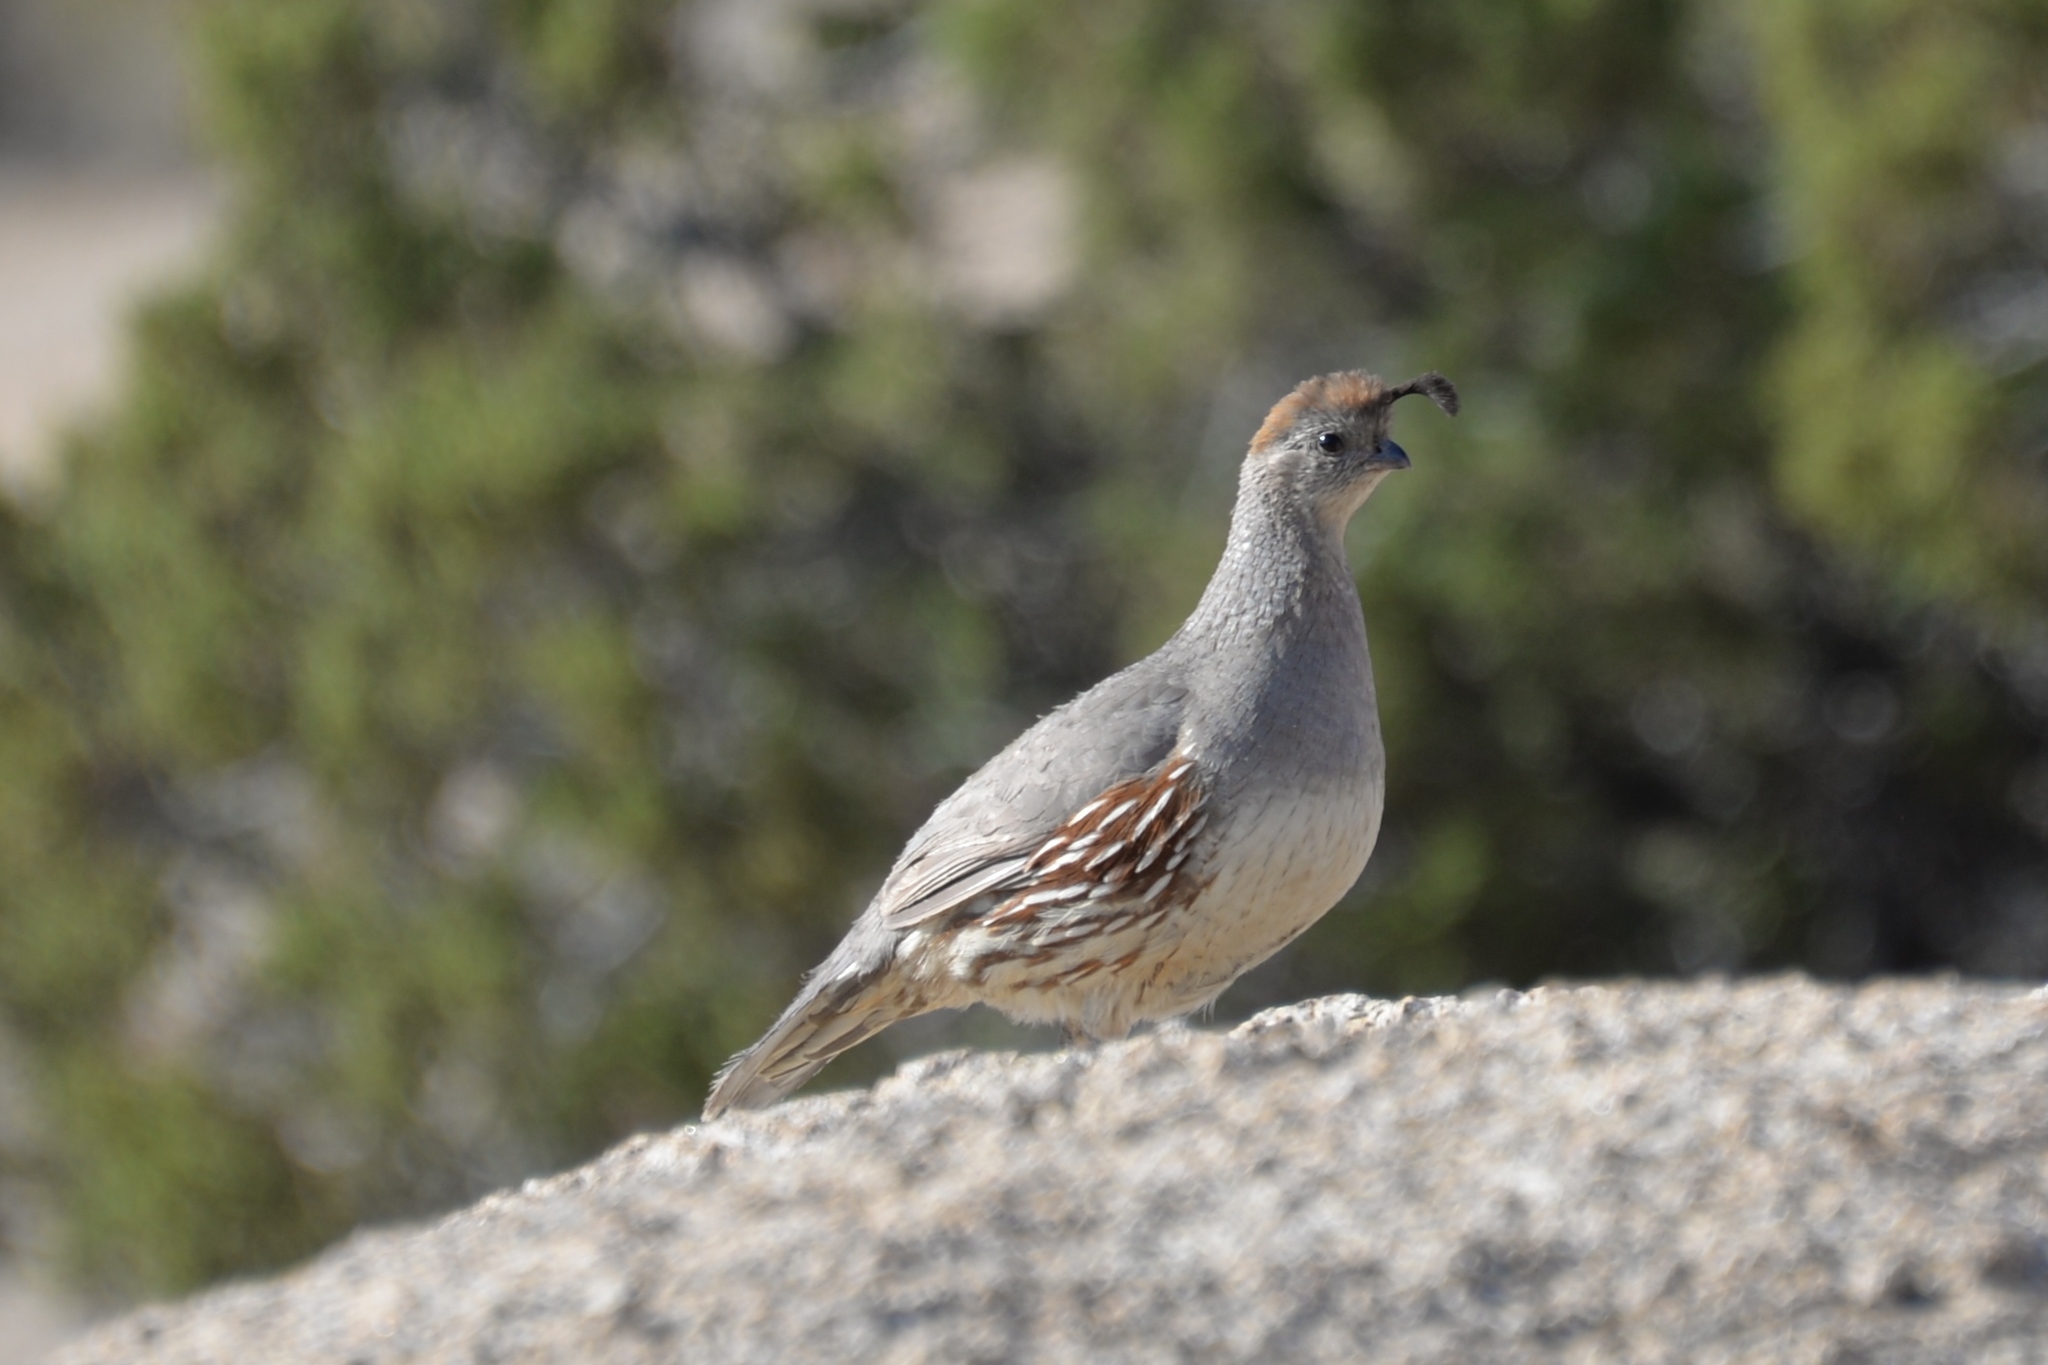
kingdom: Animalia
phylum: Chordata
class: Aves
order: Galliformes
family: Odontophoridae
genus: Callipepla
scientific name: Callipepla gambelii
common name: Gambel's quail
